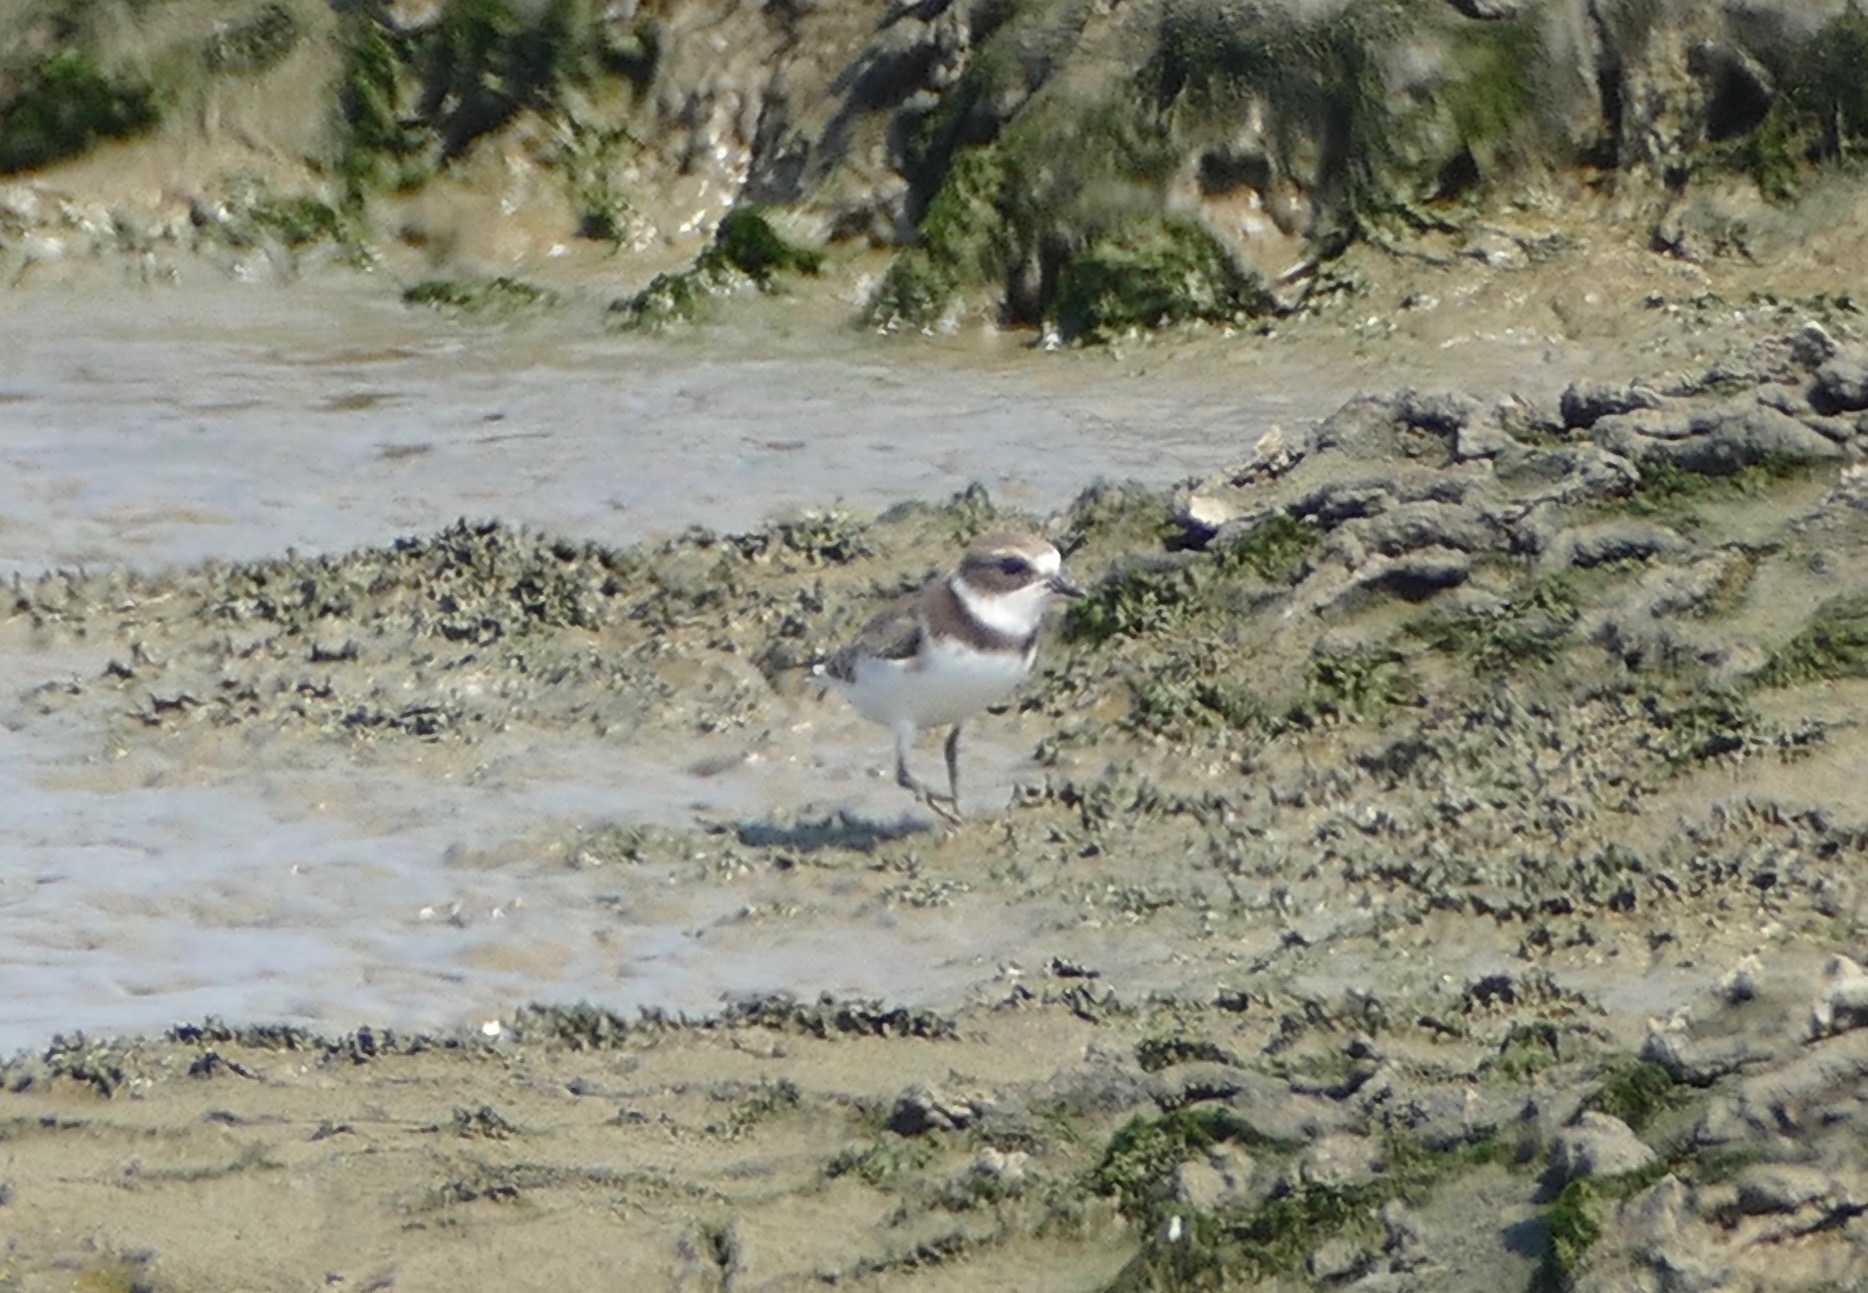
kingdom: Animalia
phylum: Chordata
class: Aves
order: Charadriiformes
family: Charadriidae
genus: Charadrius
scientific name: Charadrius semipalmatus
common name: Semipalmated plover
